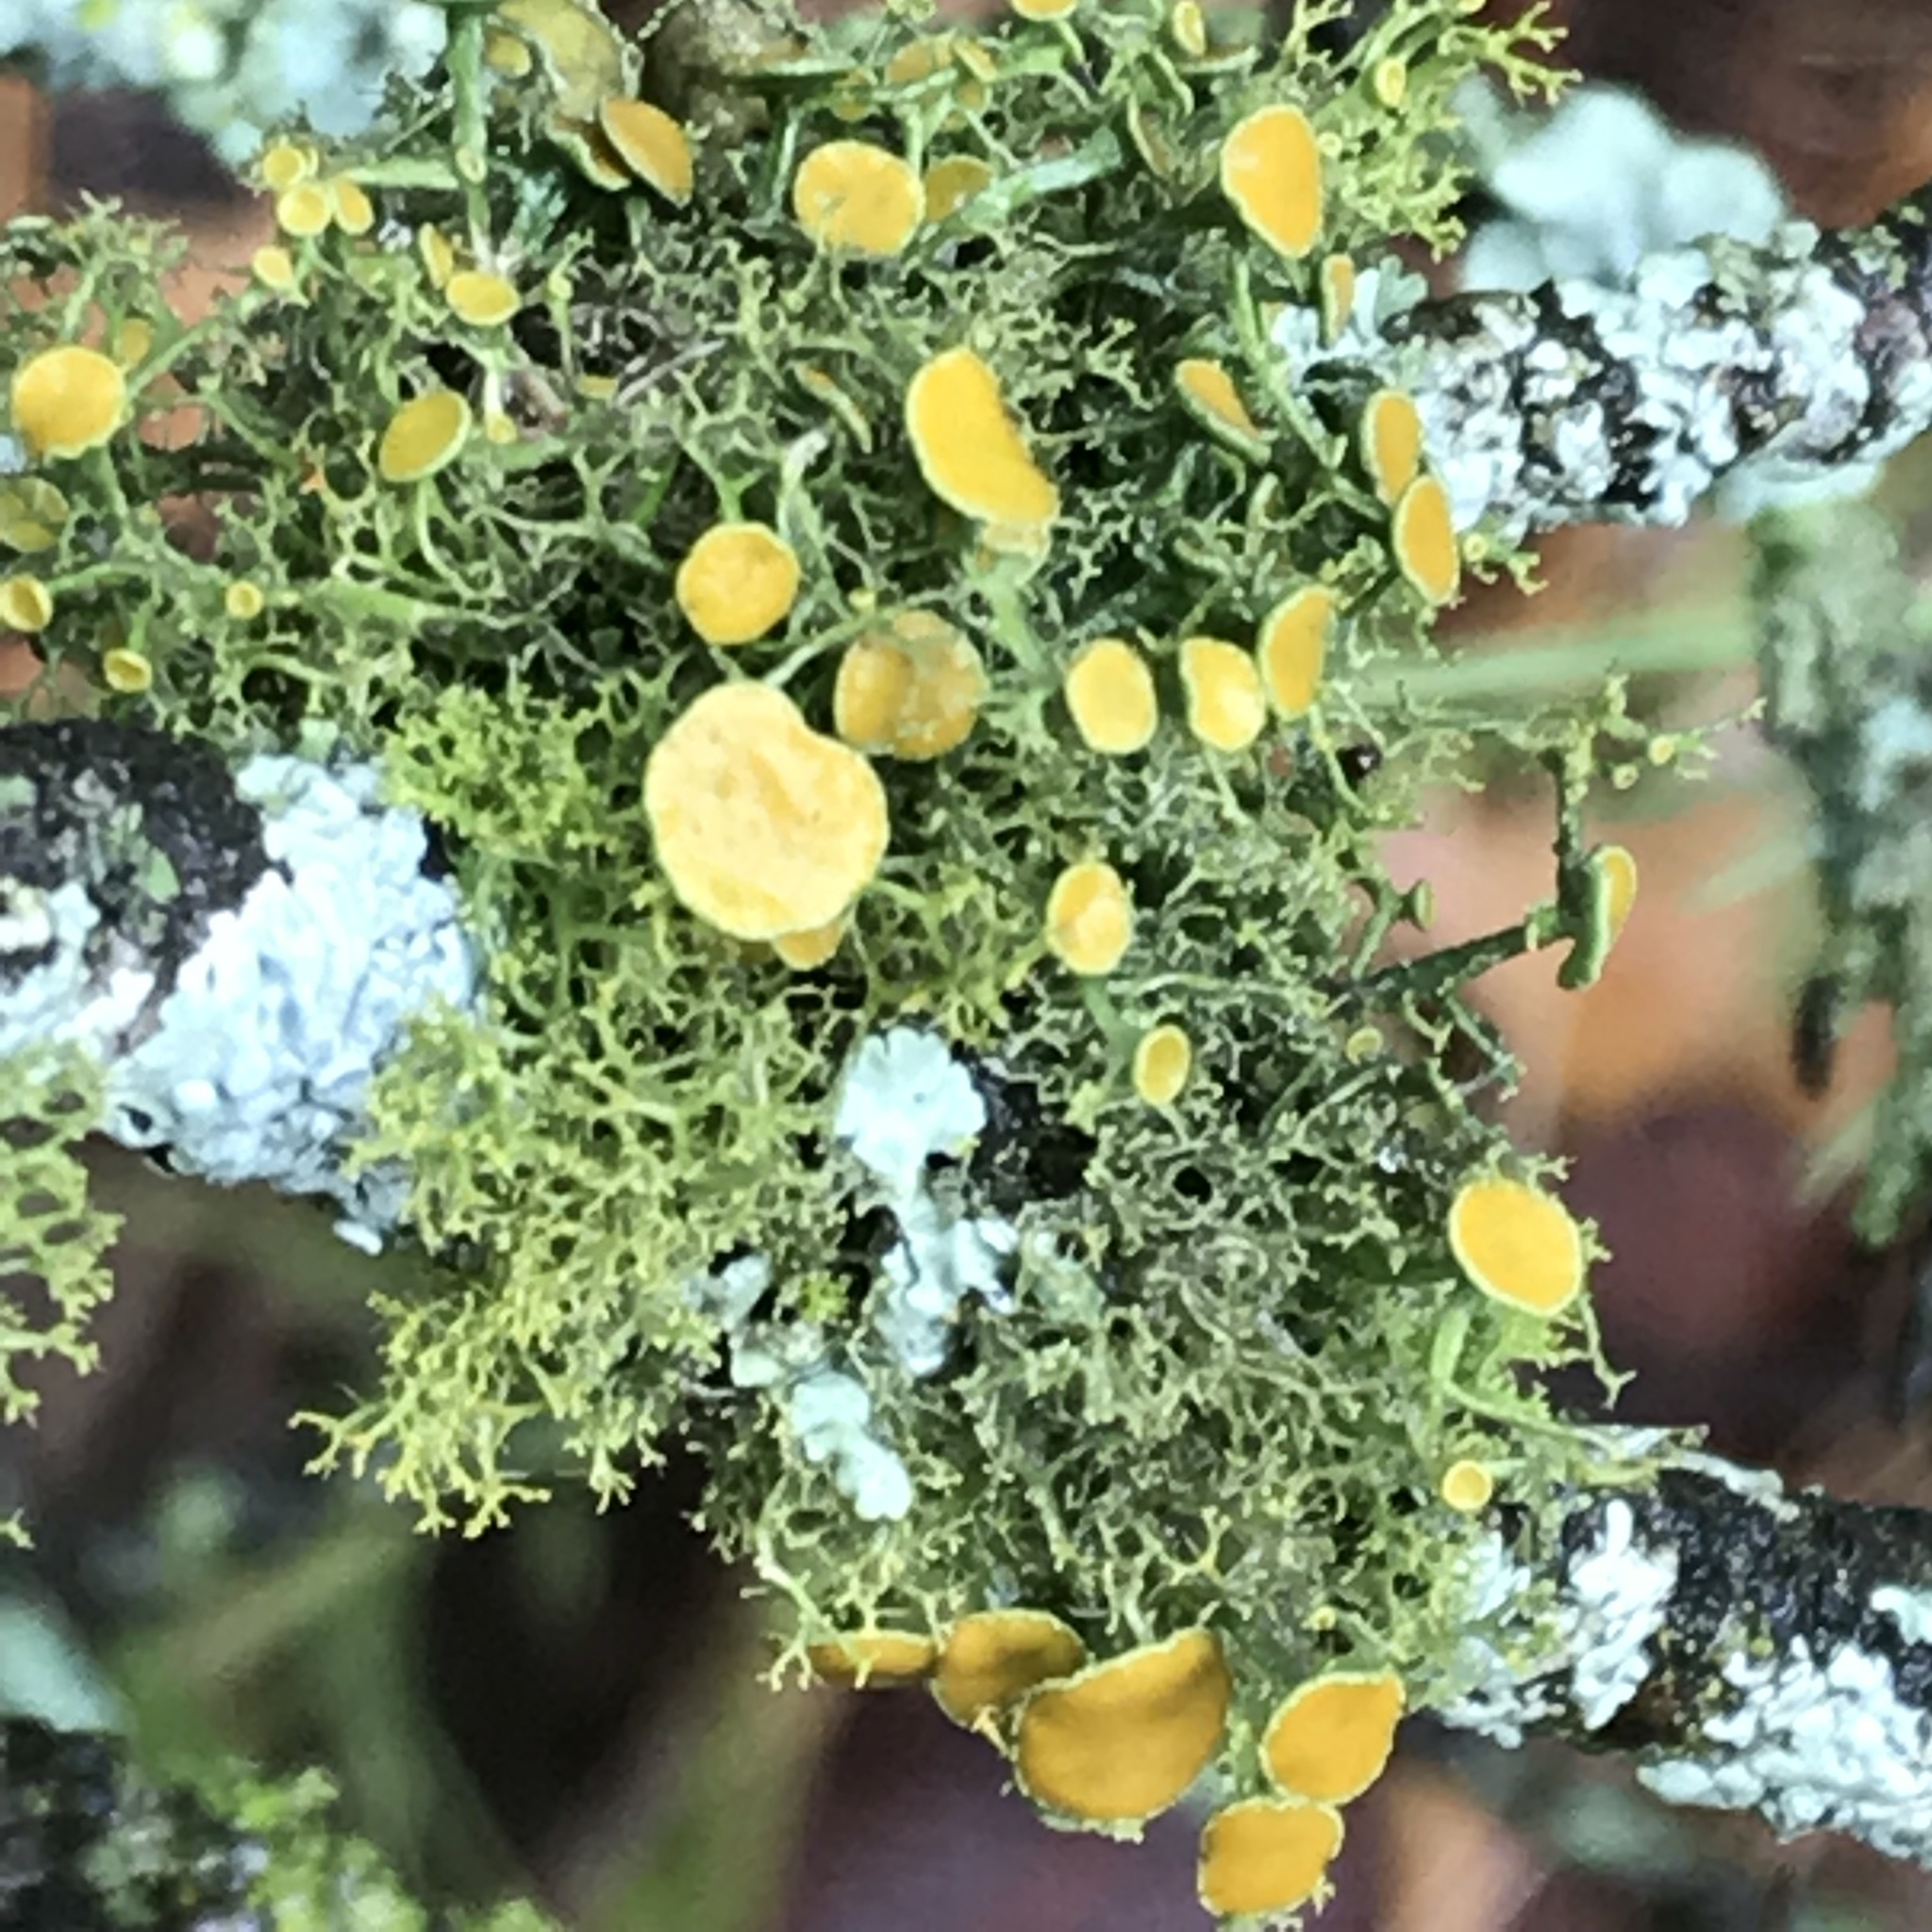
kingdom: Fungi
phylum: Ascomycota
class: Lecanoromycetes
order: Teloschistales
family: Teloschistaceae
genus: Teloschistes
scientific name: Teloschistes exilis
